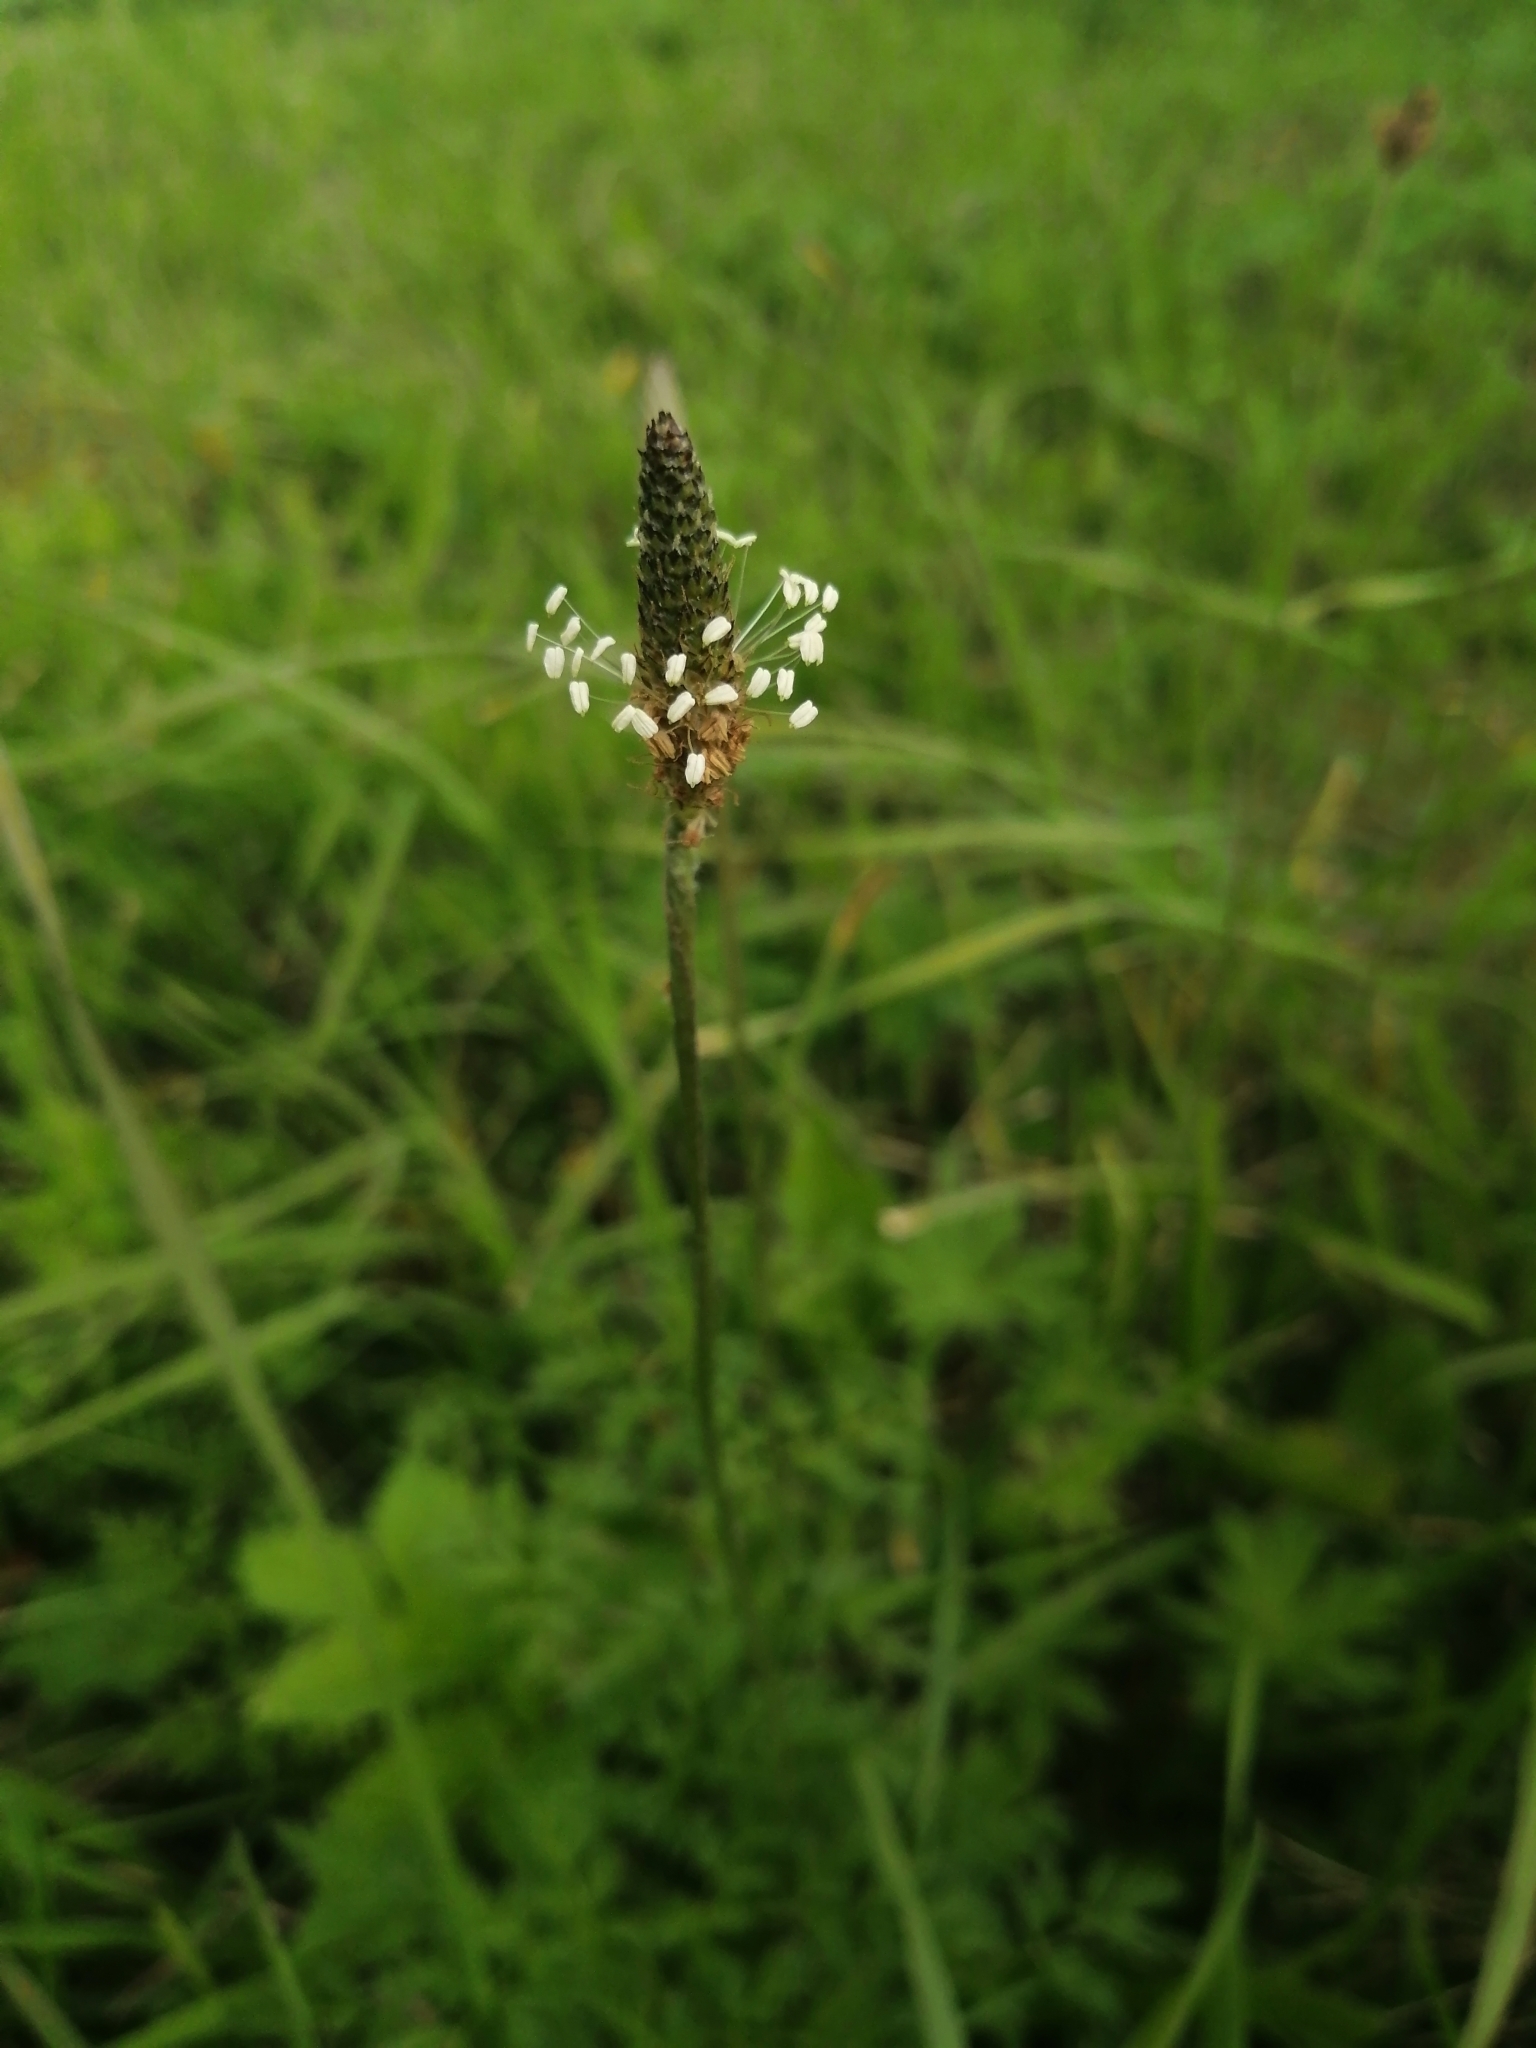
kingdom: Plantae
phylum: Tracheophyta
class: Magnoliopsida
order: Lamiales
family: Plantaginaceae
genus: Plantago
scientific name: Plantago lanceolata
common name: Ribwort plantain
